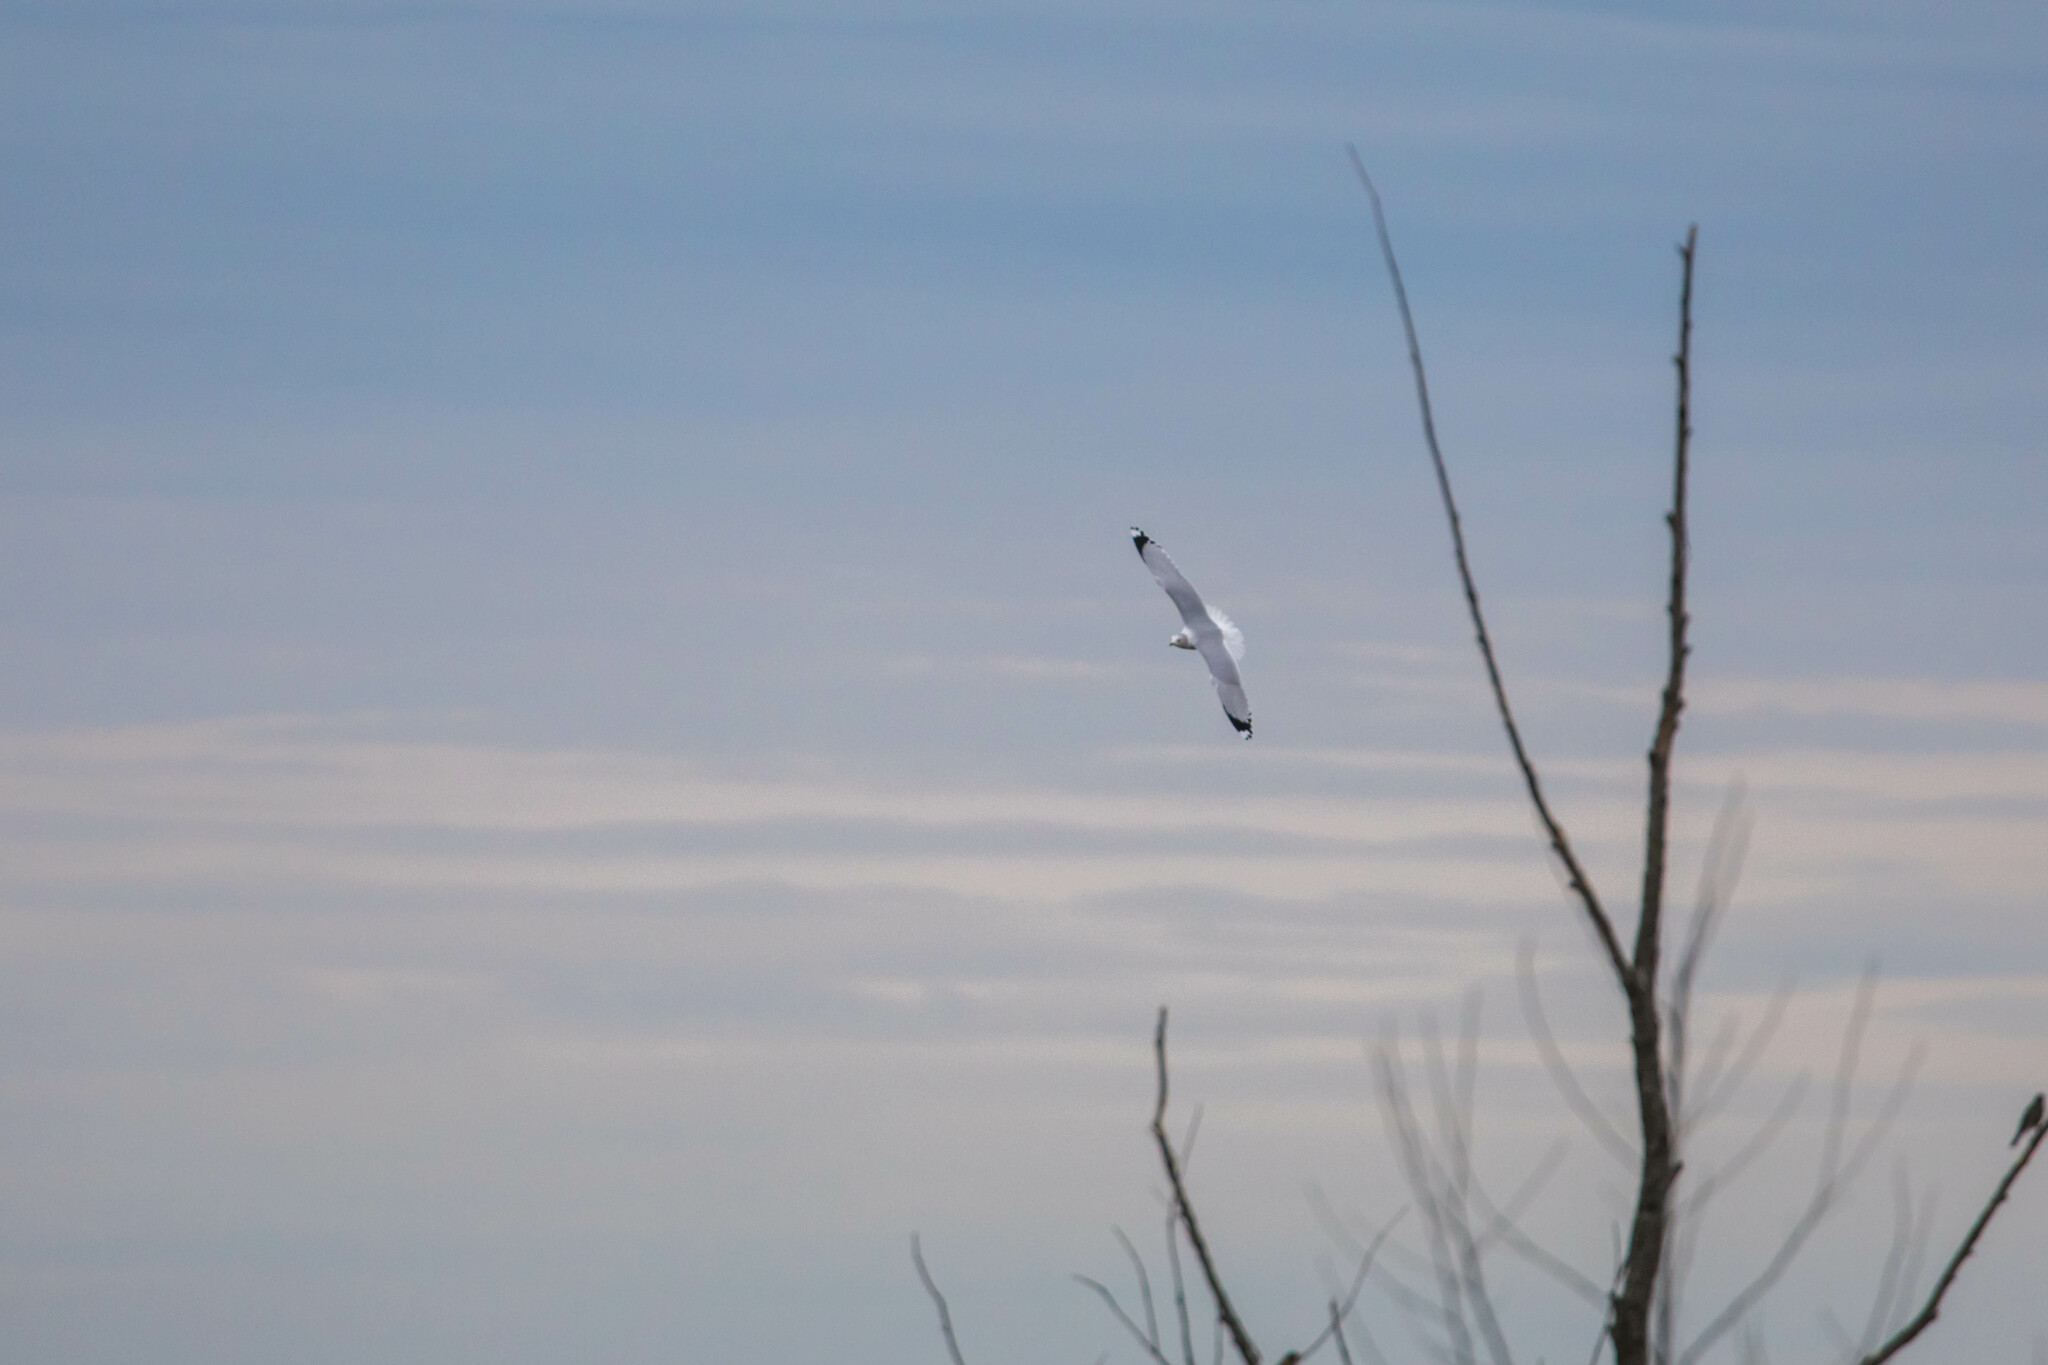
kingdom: Animalia
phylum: Chordata
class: Aves
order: Charadriiformes
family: Laridae
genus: Larus
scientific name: Larus delawarensis
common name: Ring-billed gull
